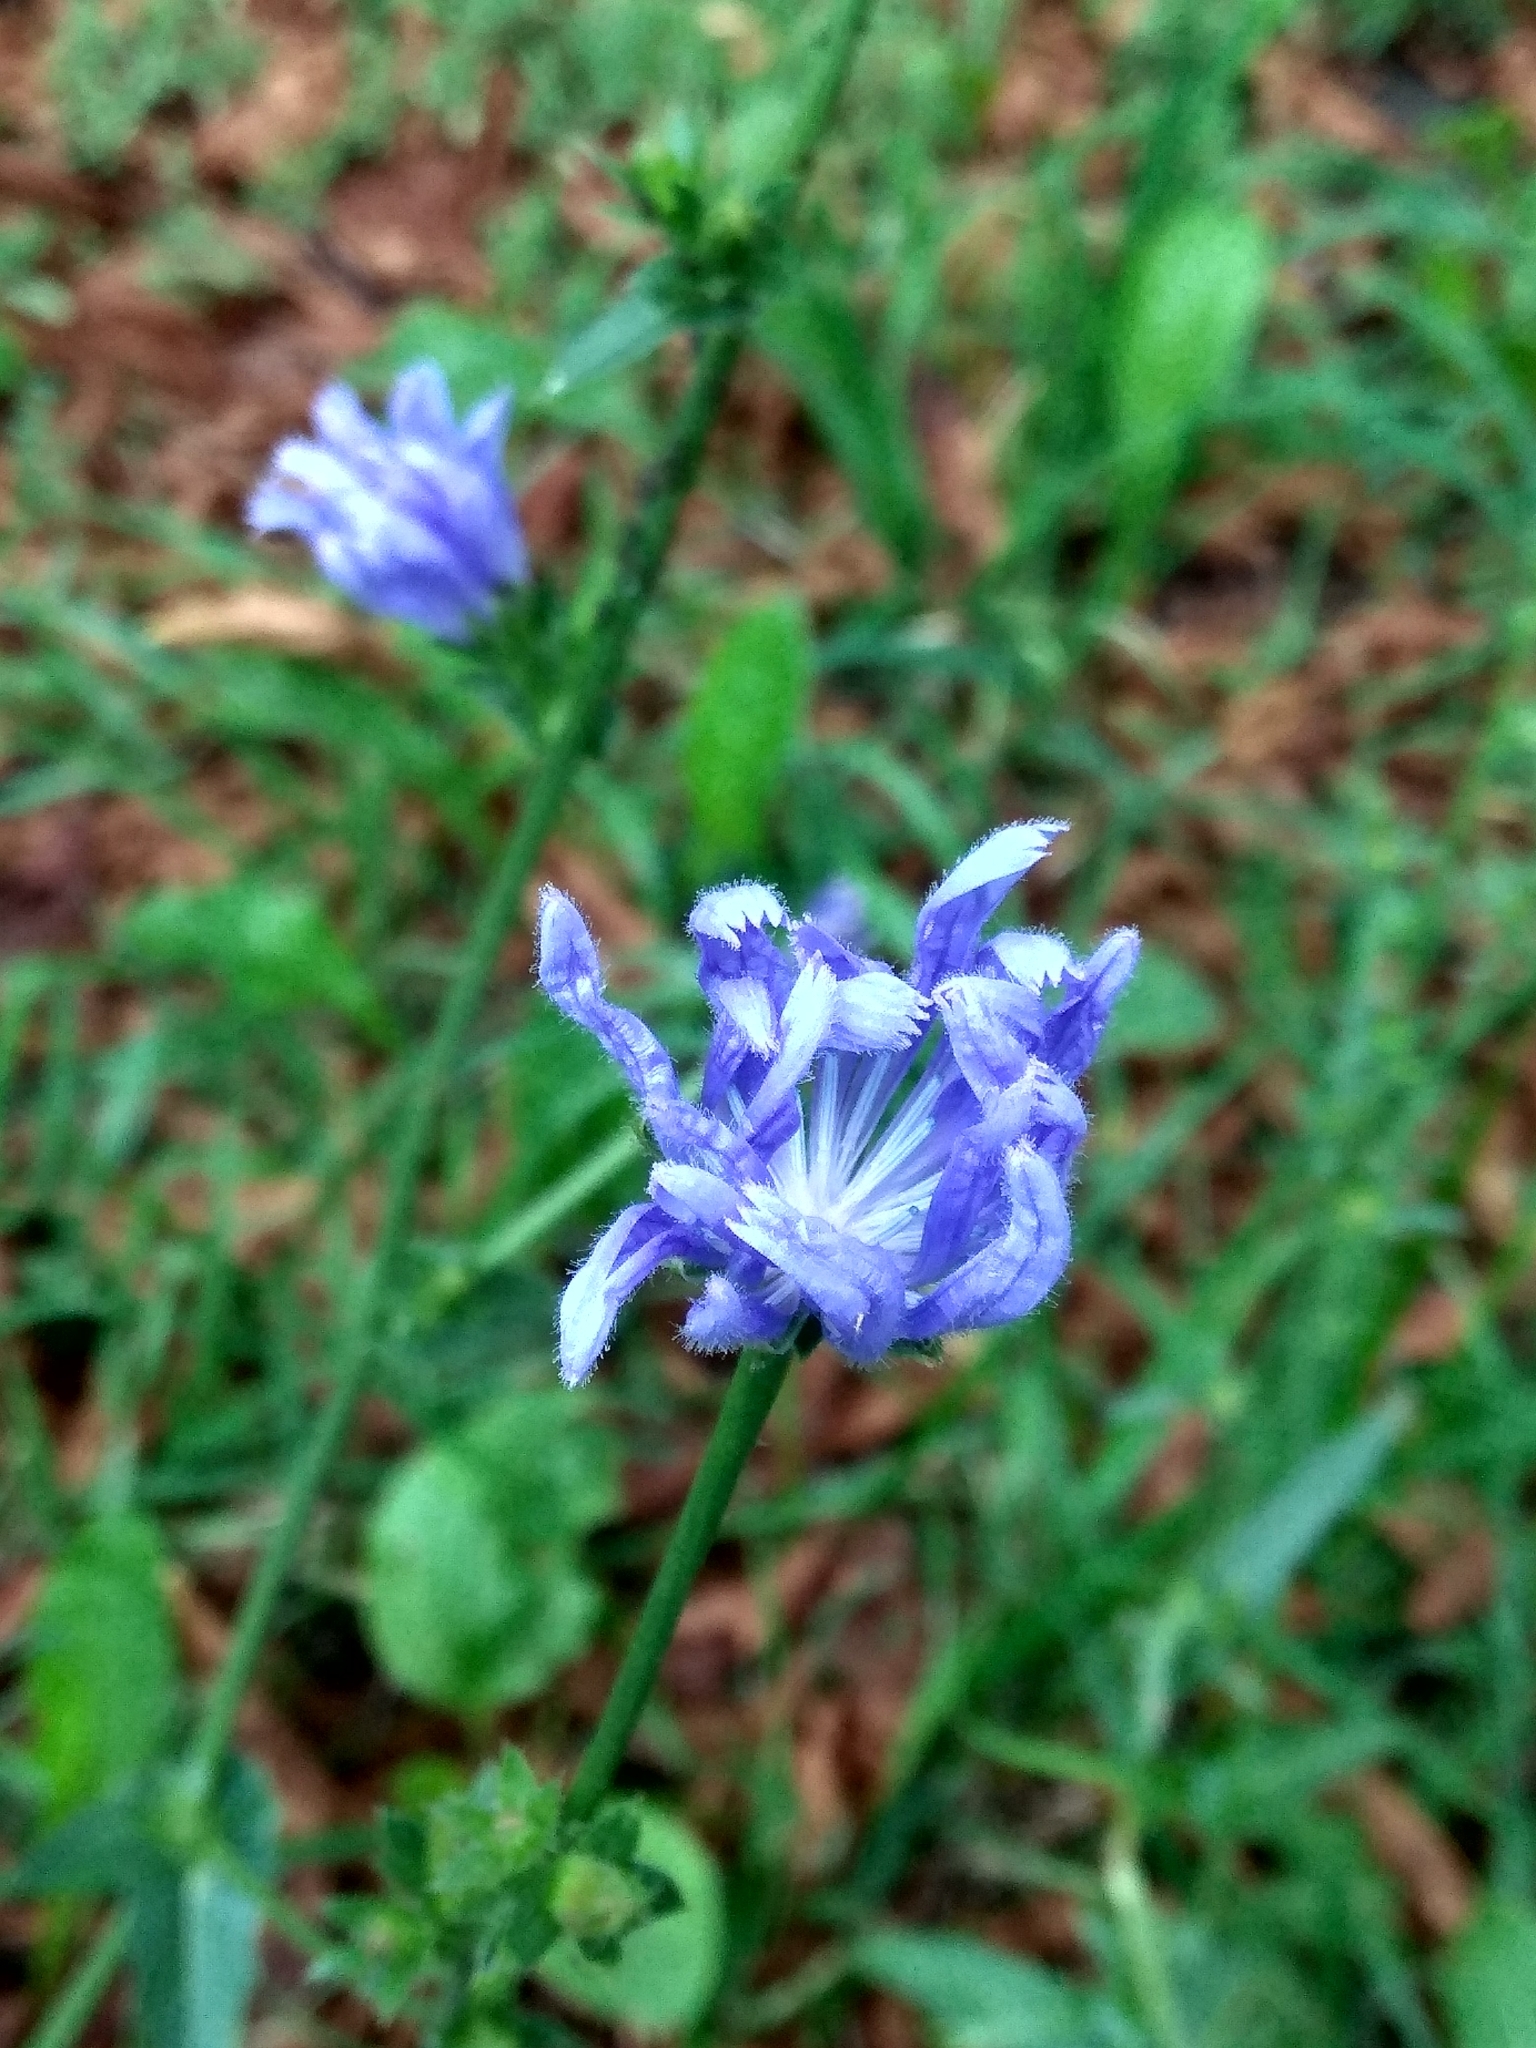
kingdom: Plantae
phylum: Tracheophyta
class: Magnoliopsida
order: Asterales
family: Asteraceae
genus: Cichorium
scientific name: Cichorium intybus
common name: Chicory
